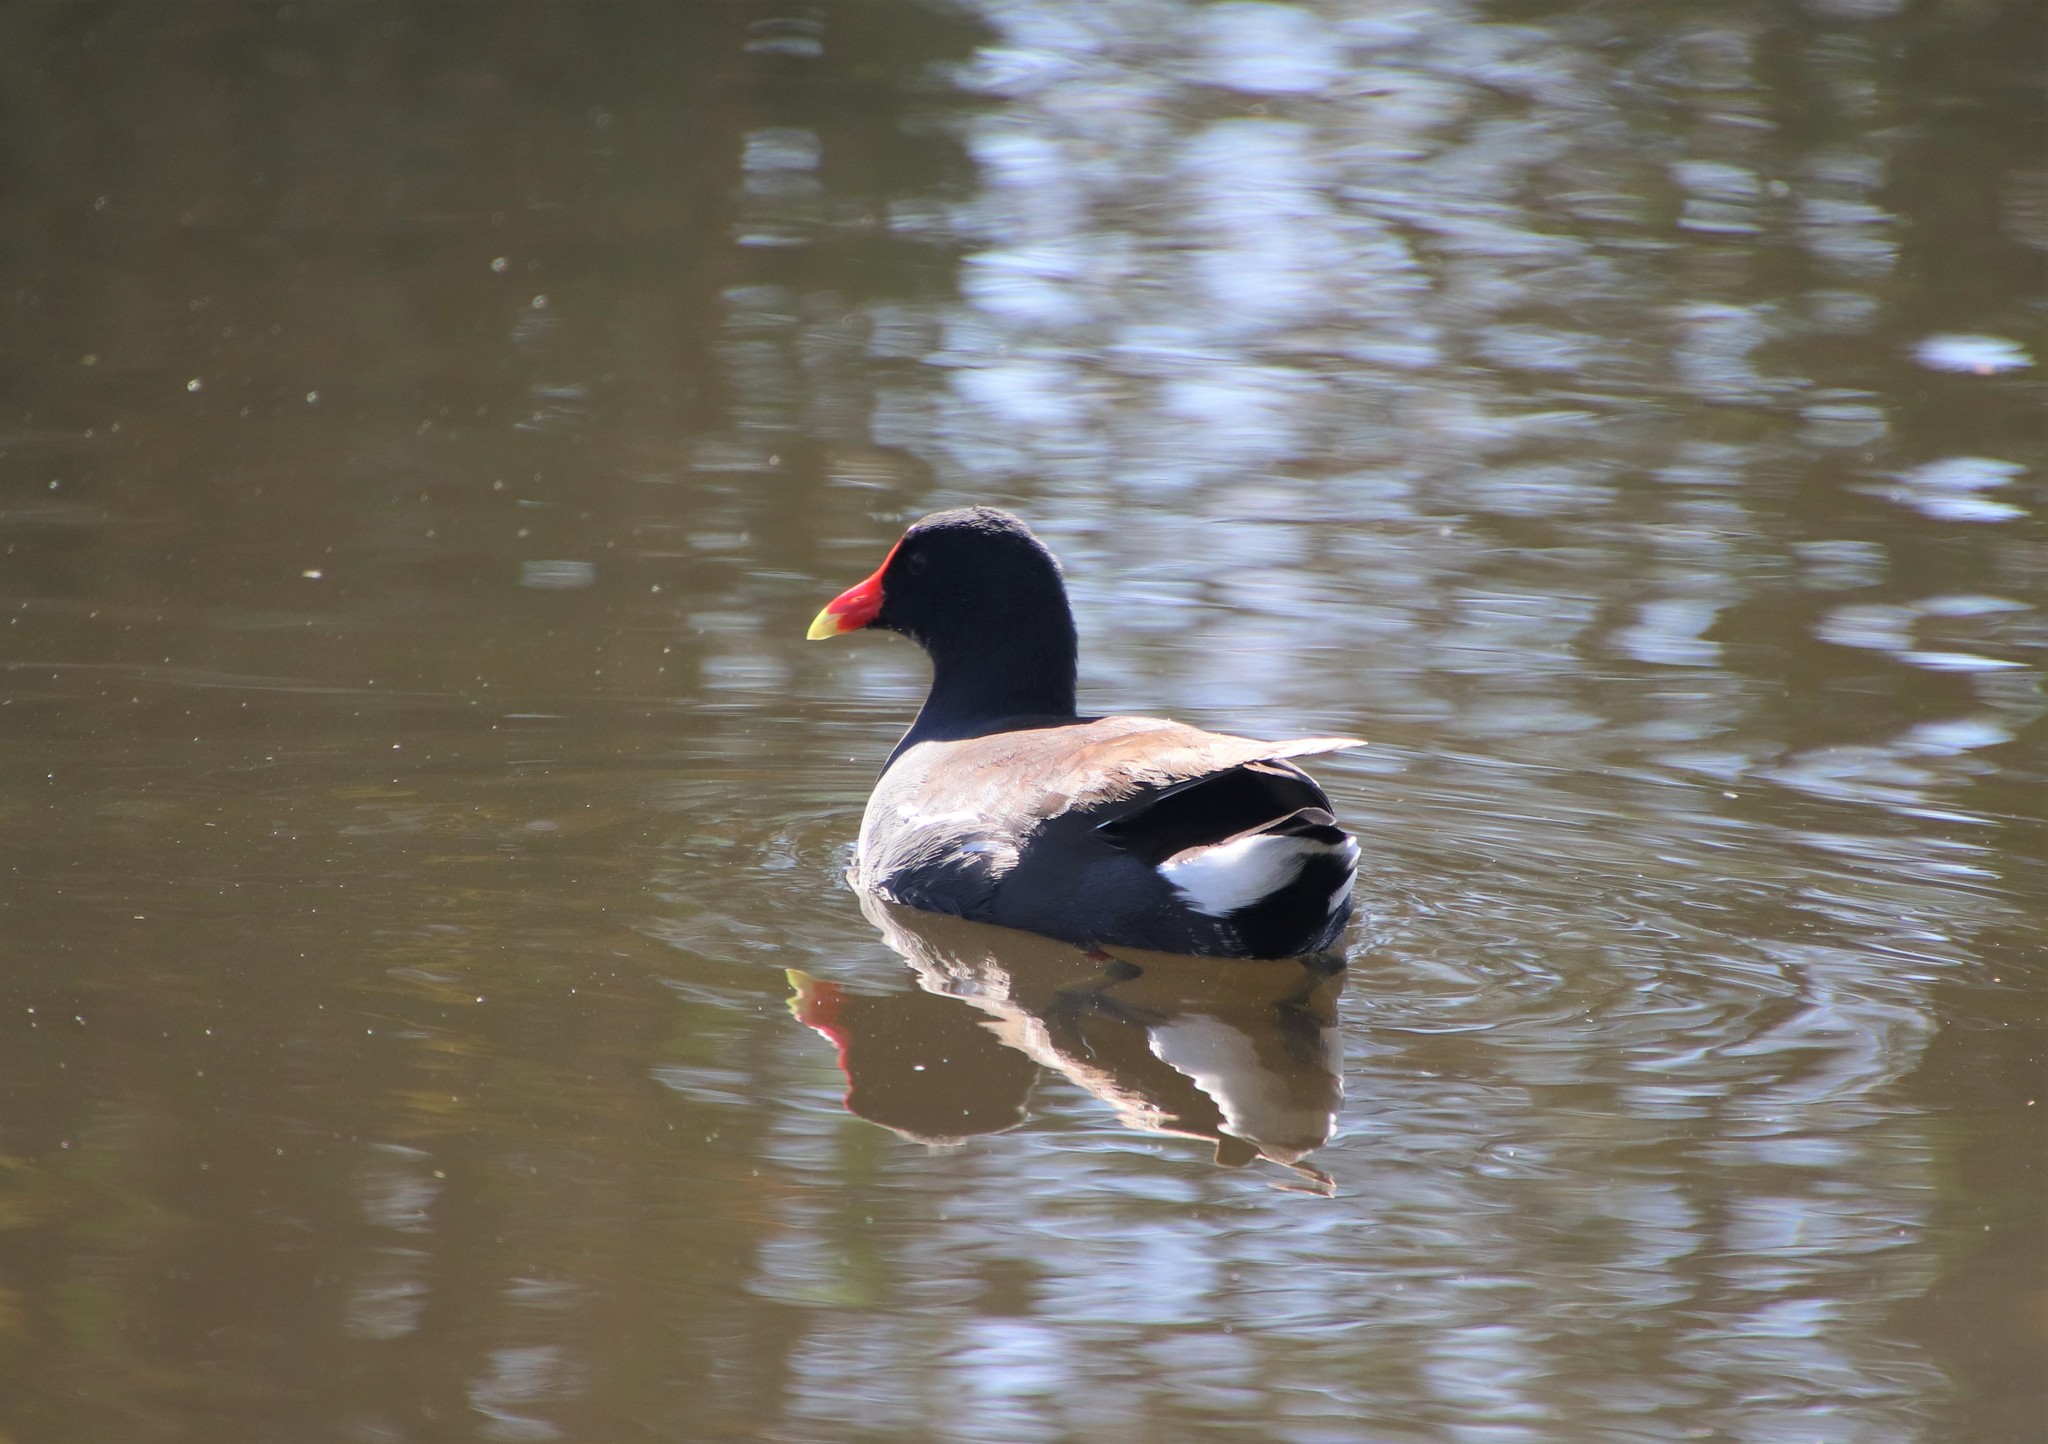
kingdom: Animalia
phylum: Chordata
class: Aves
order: Gruiformes
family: Rallidae
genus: Gallinula
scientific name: Gallinula chloropus
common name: Common moorhen
